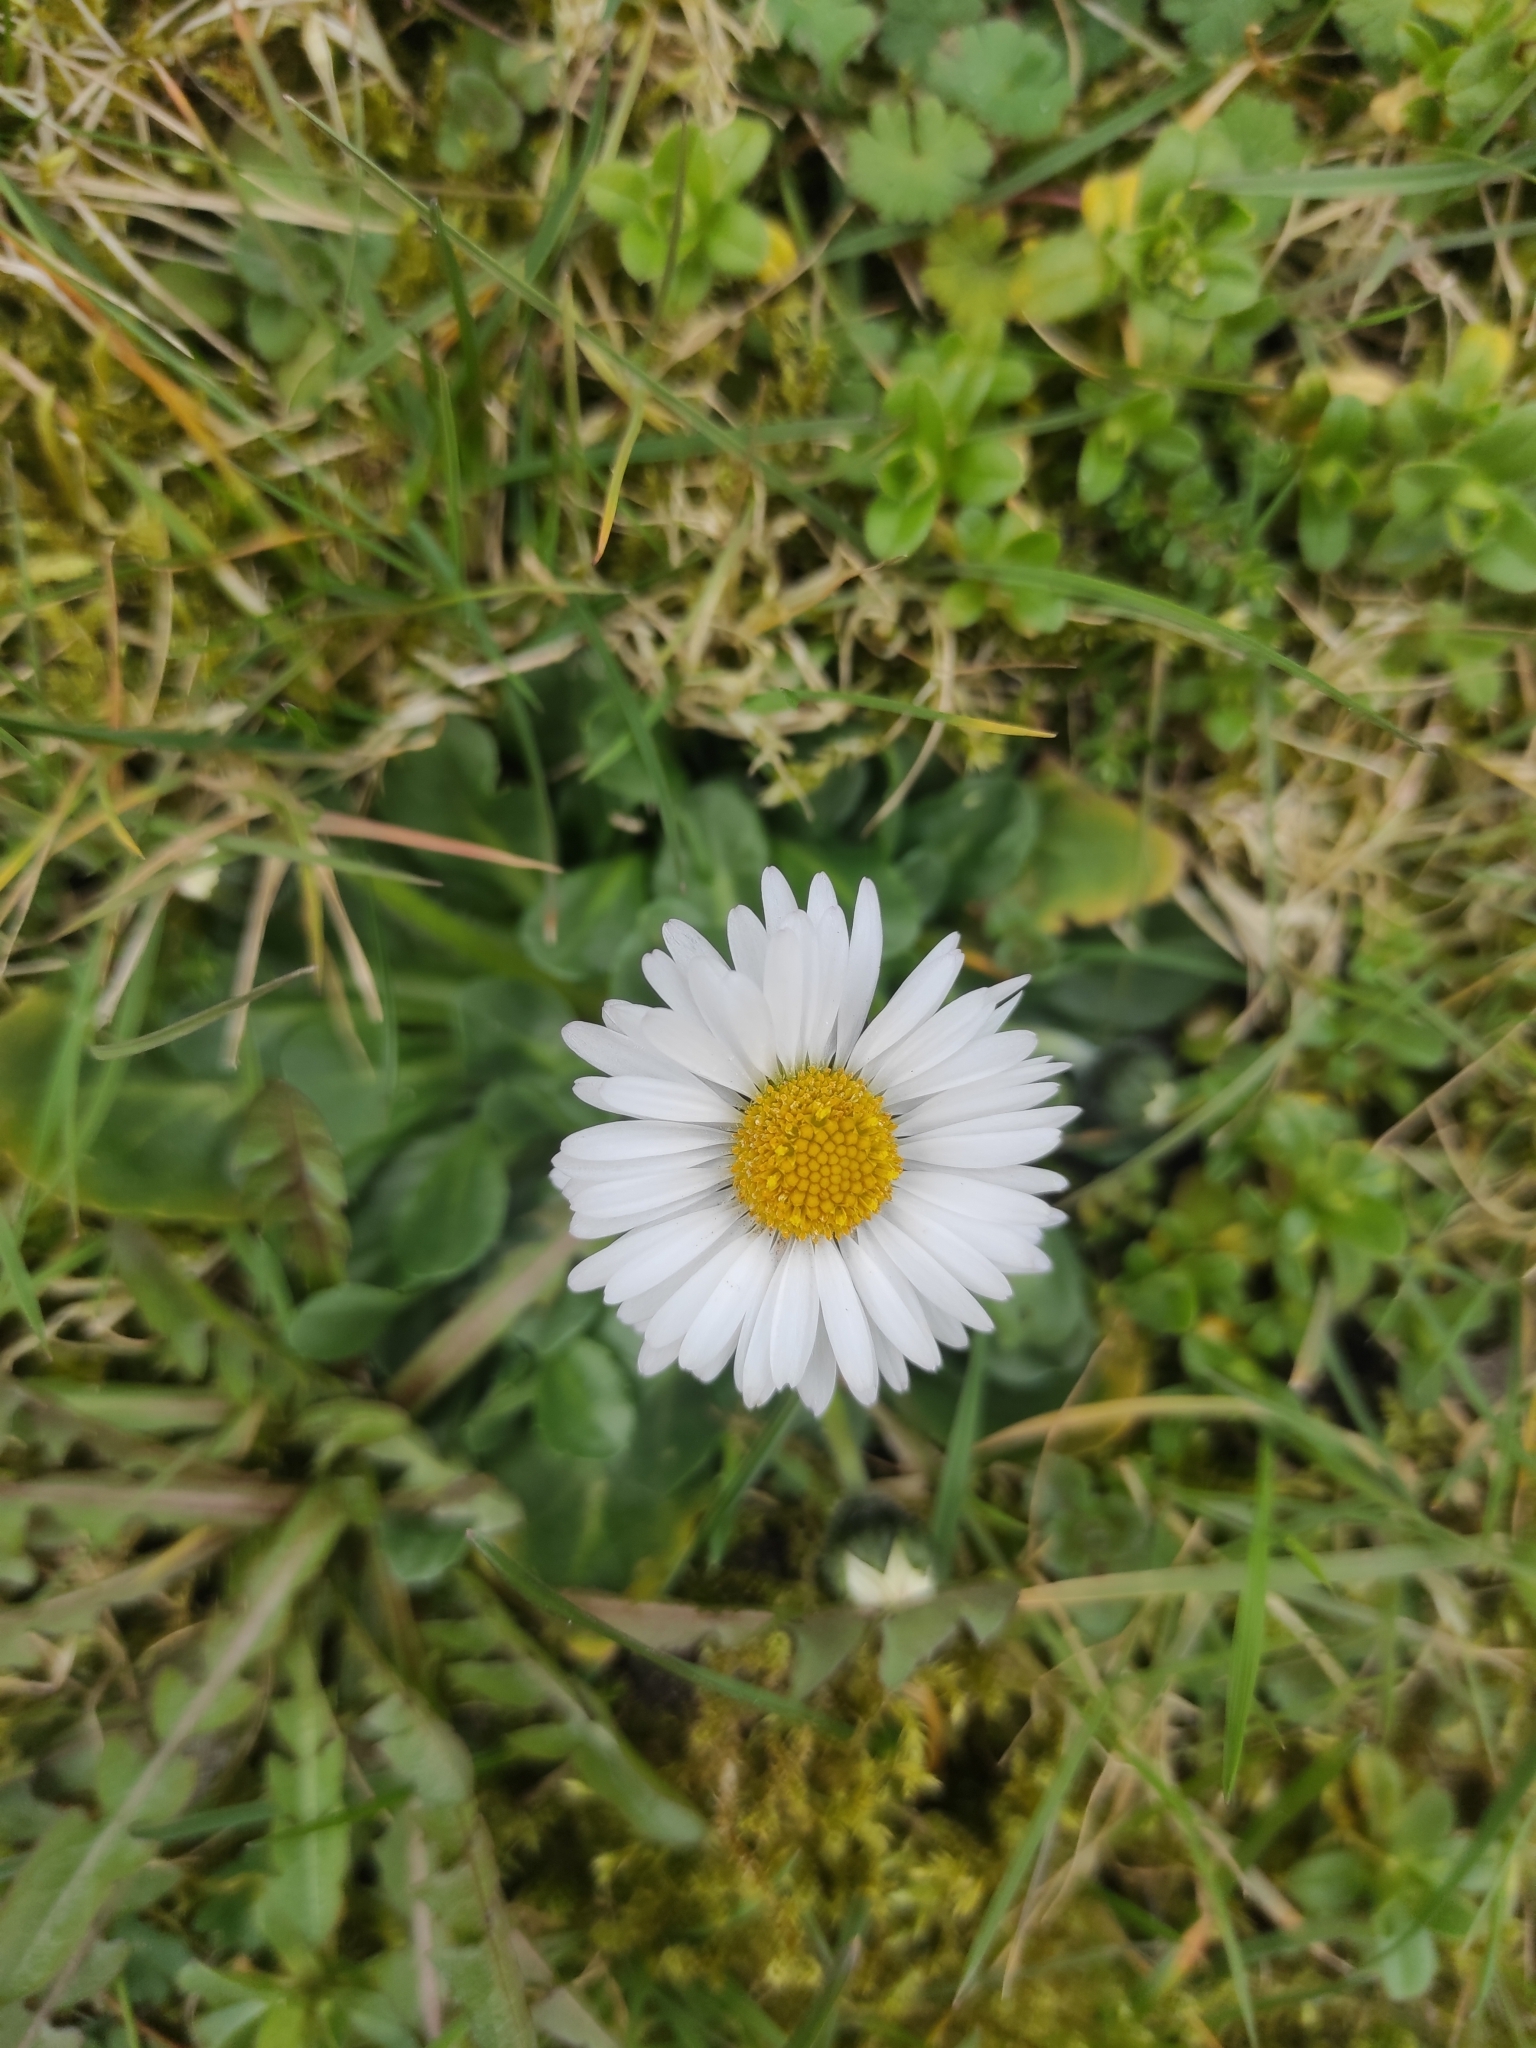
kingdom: Plantae
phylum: Tracheophyta
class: Magnoliopsida
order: Asterales
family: Asteraceae
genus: Bellis
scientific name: Bellis perennis
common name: Lawndaisy
